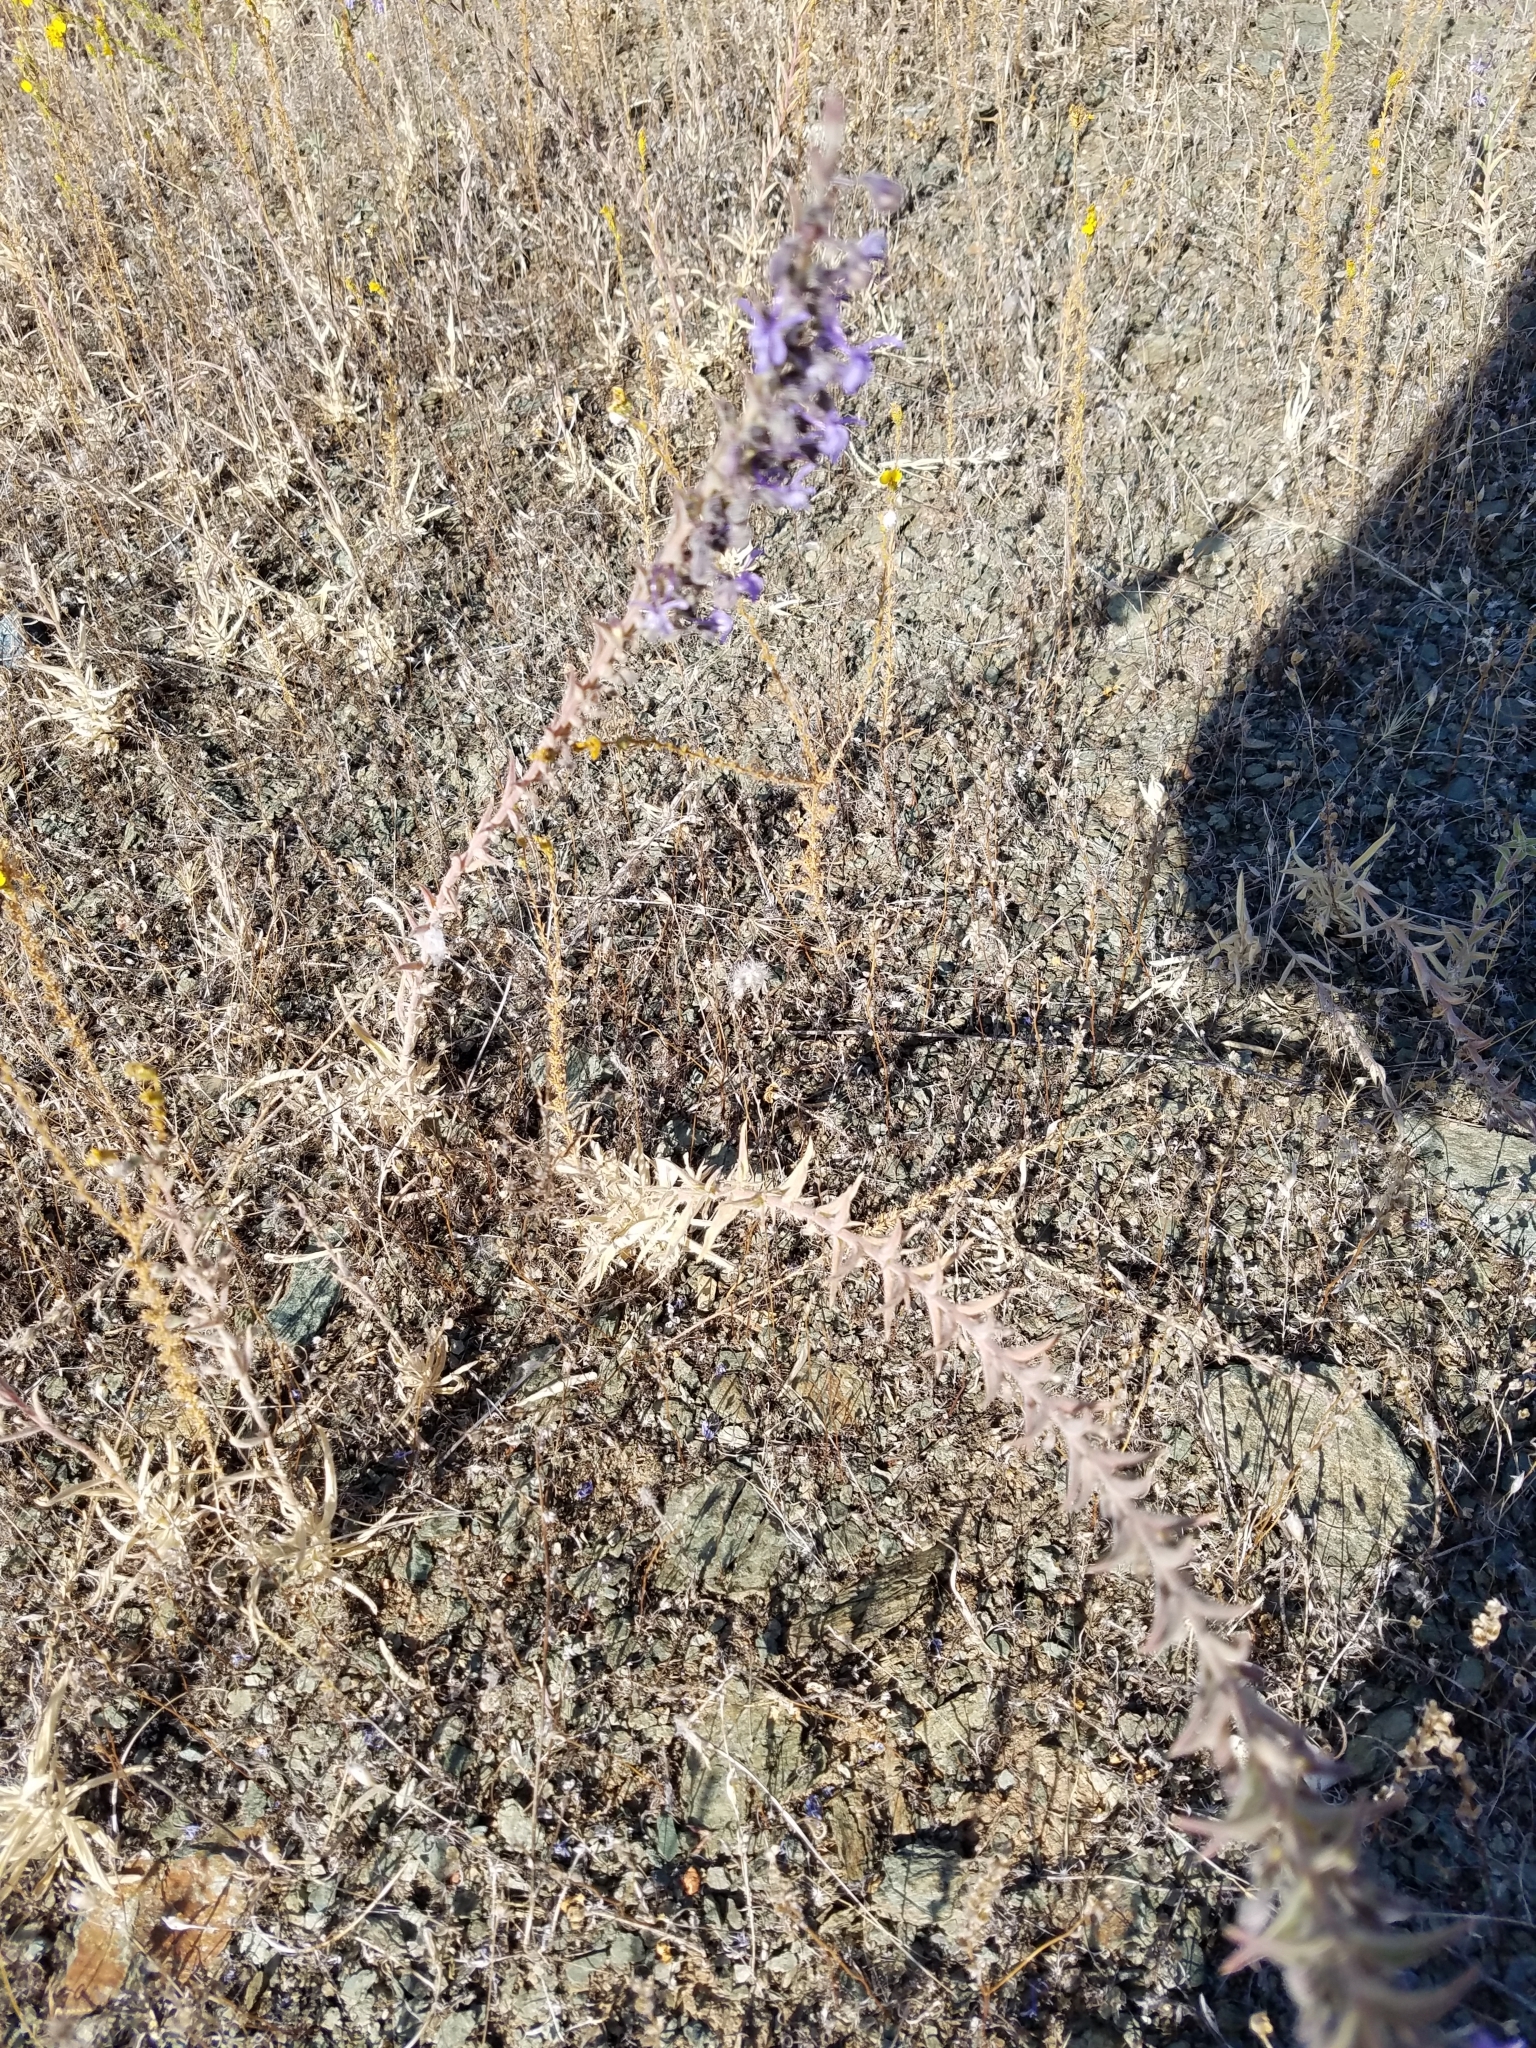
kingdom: Plantae
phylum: Tracheophyta
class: Magnoliopsida
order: Lamiales
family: Lamiaceae
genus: Trichostema
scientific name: Trichostema lanceolatum
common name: Vinegar-weed
